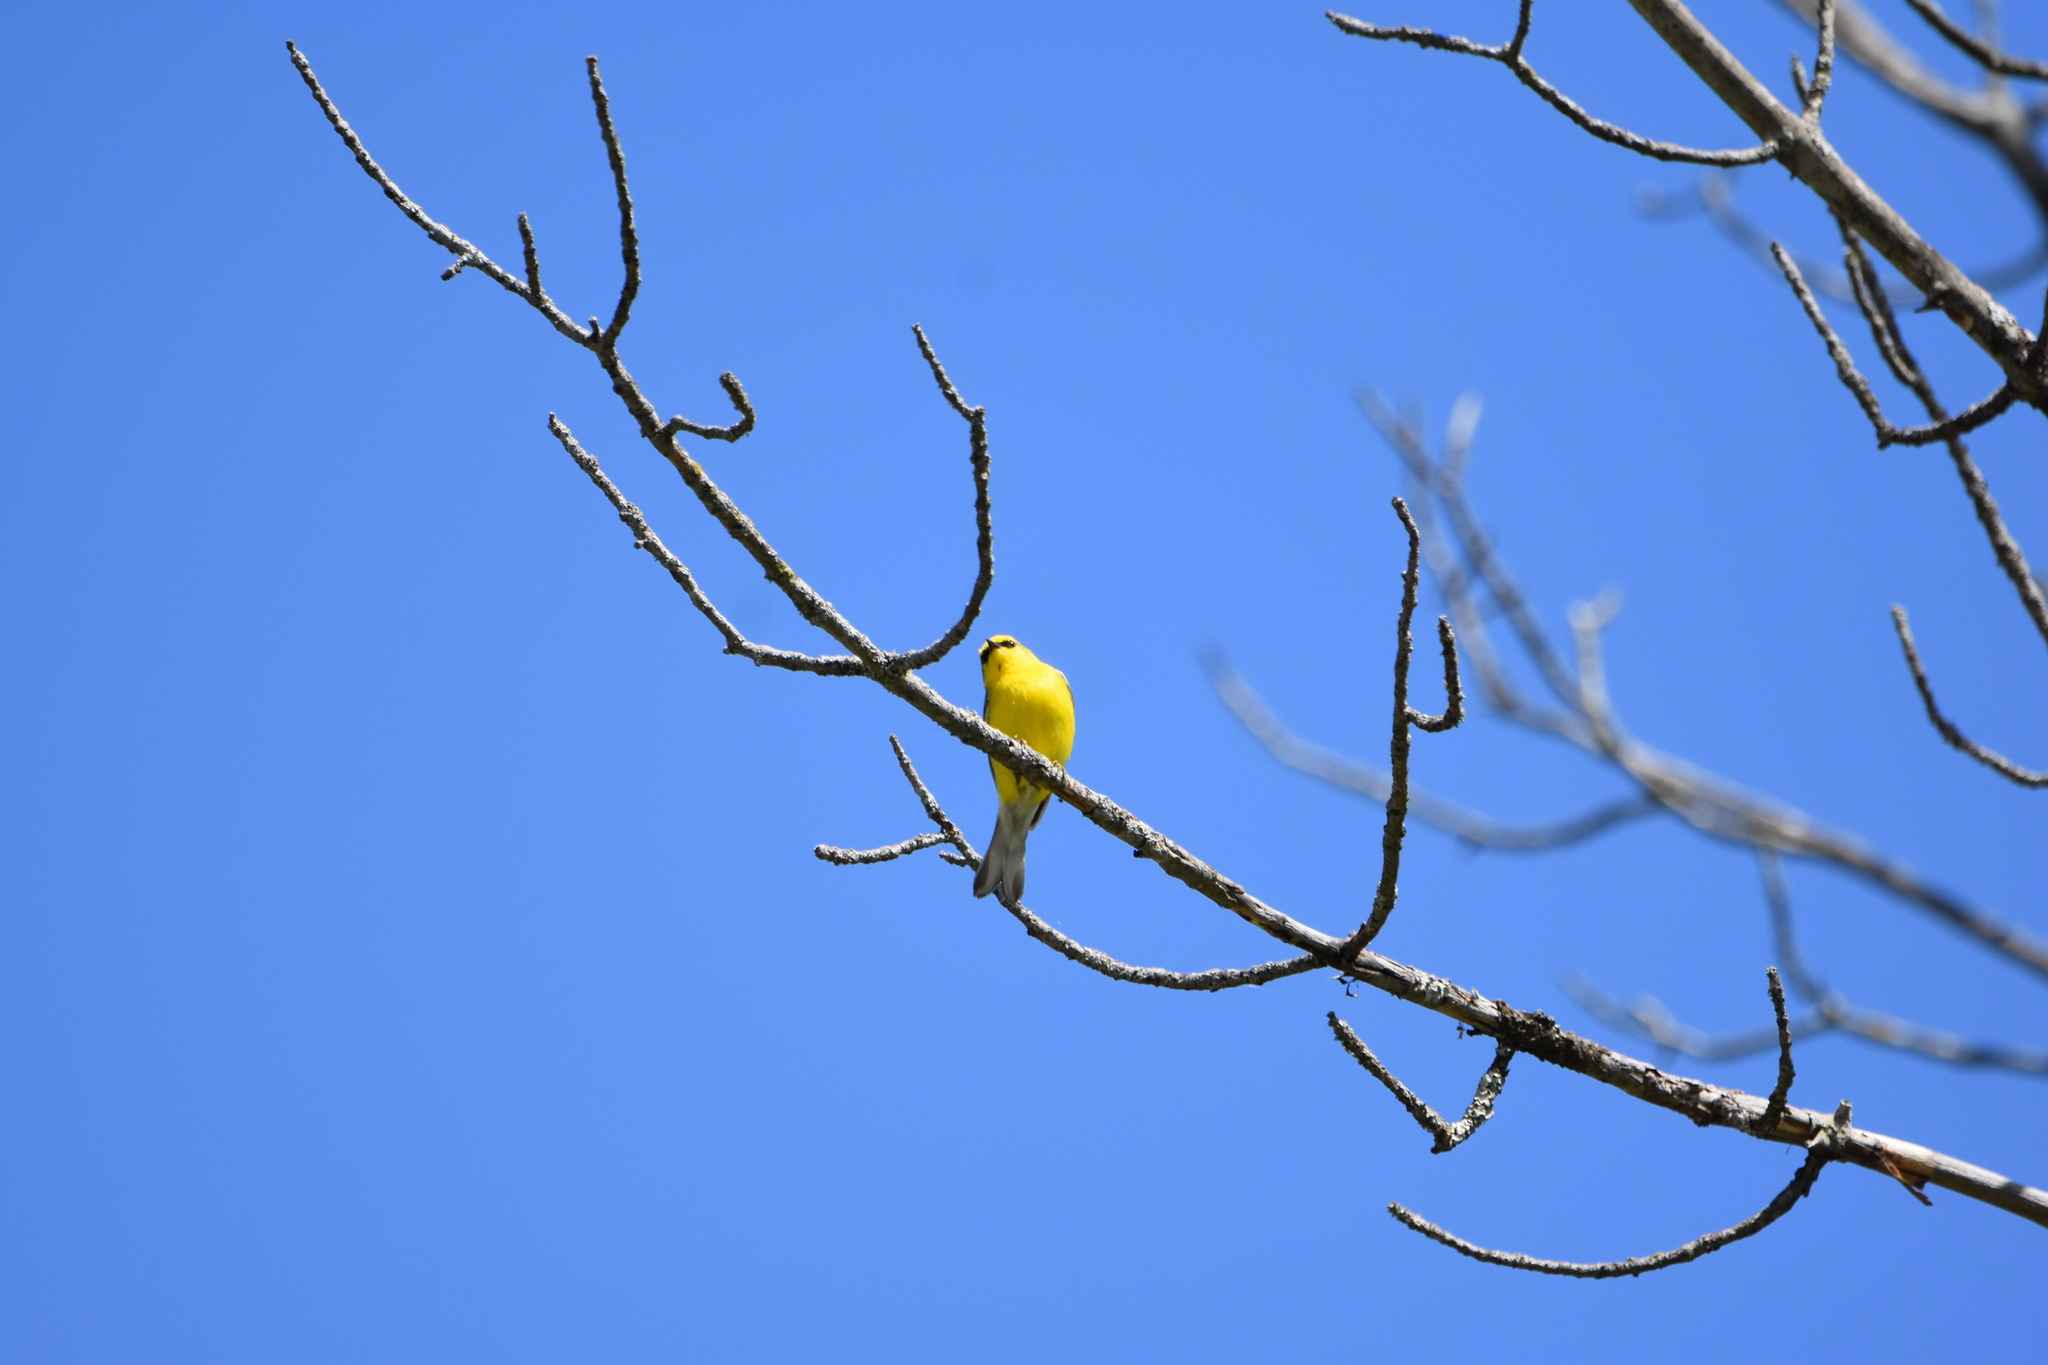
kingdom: Animalia
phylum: Chordata
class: Aves
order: Passeriformes
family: Parulidae
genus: Vermivora
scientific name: Vermivora cyanoptera
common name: Blue-winged warbler
